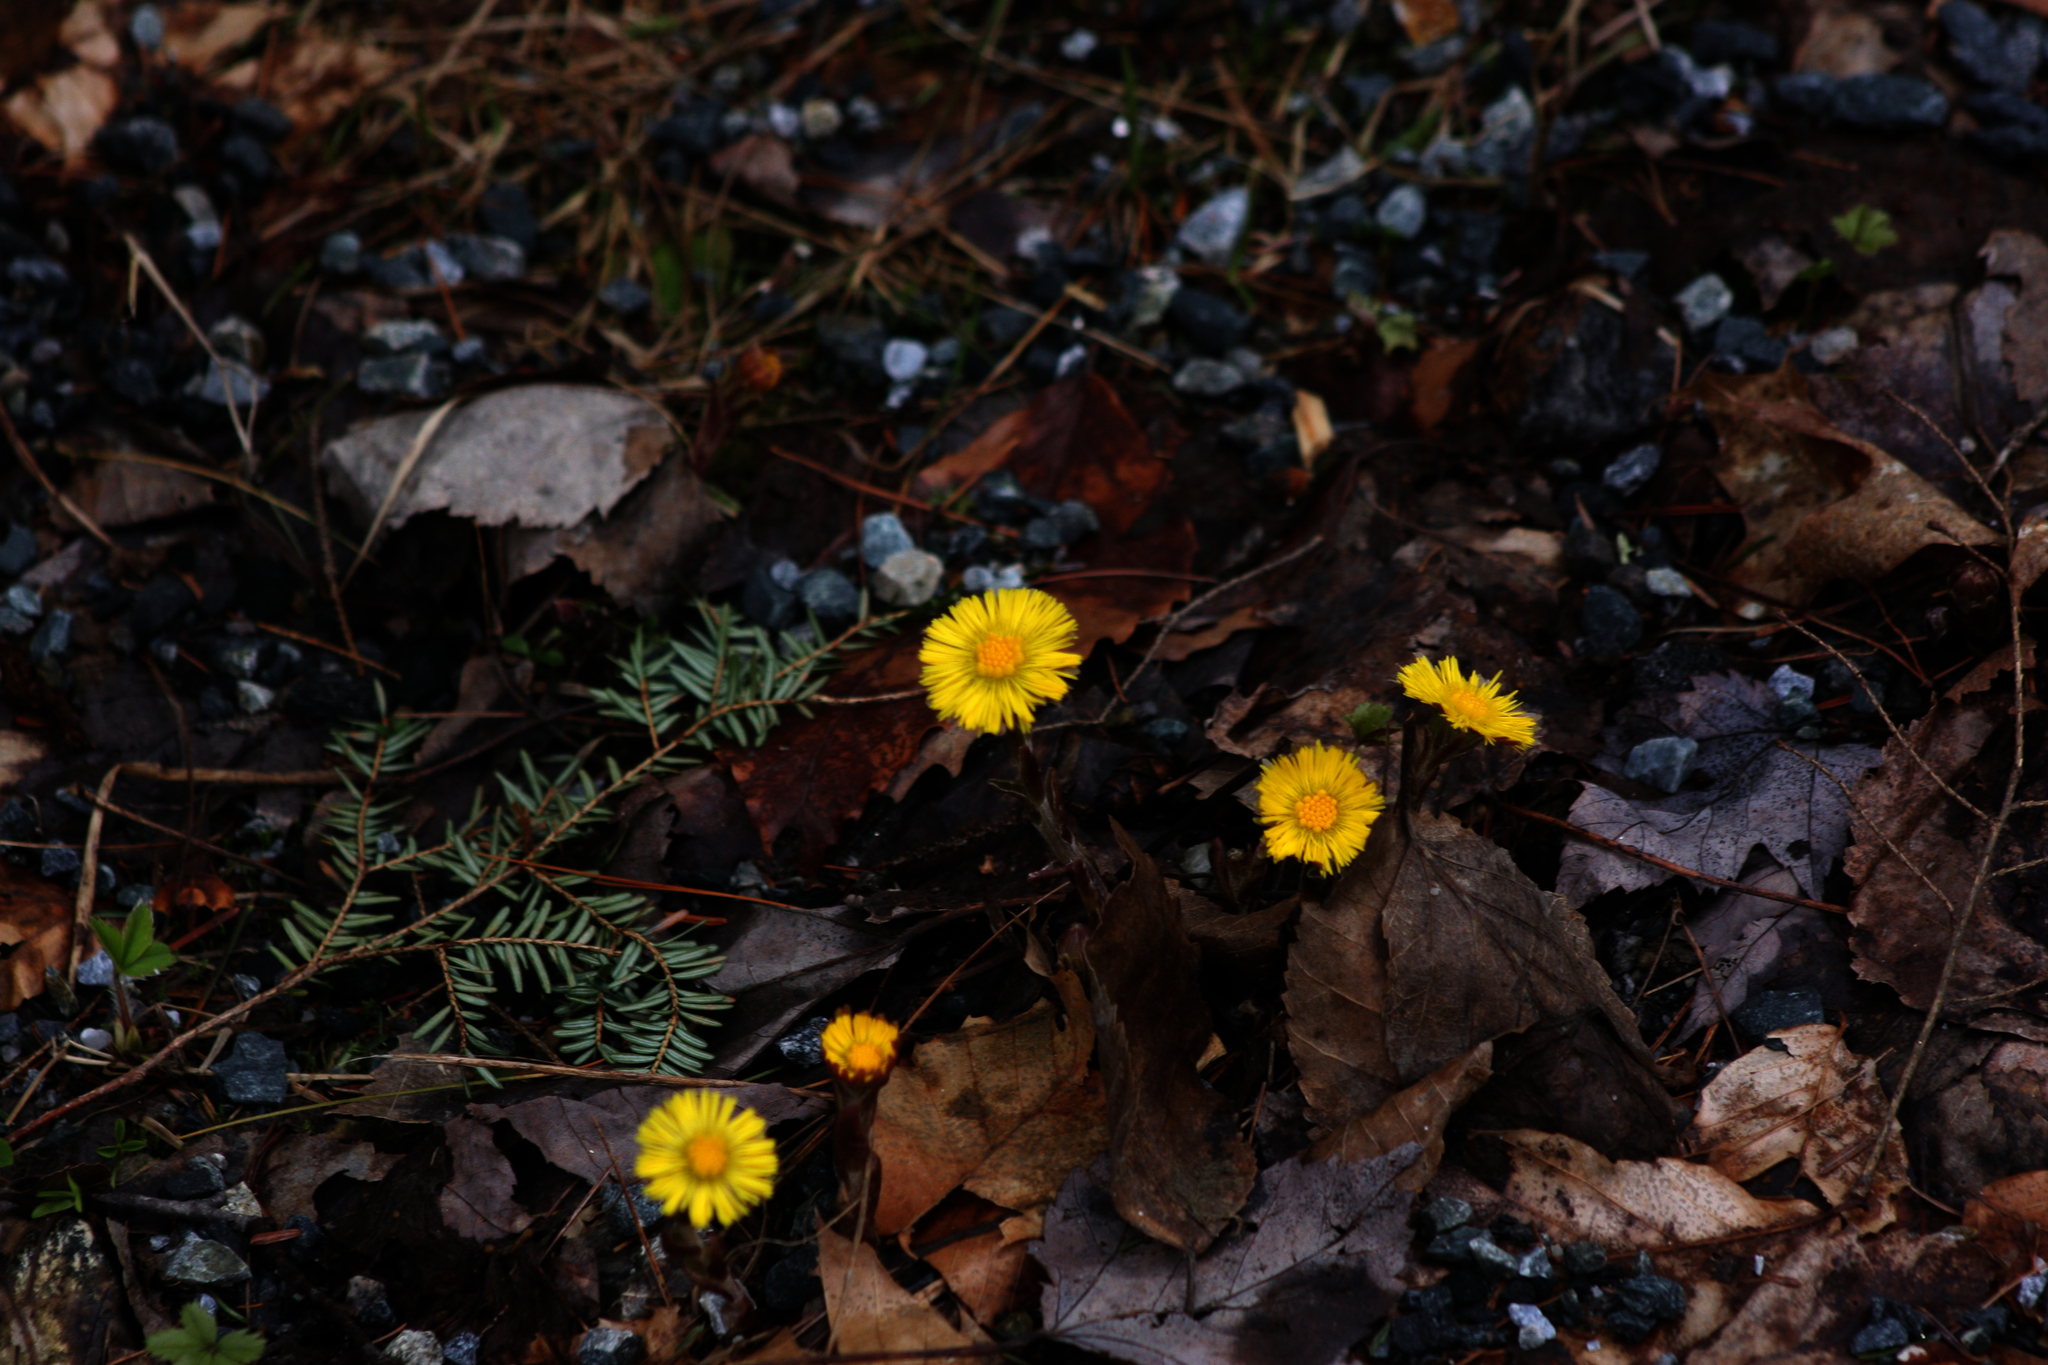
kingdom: Plantae
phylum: Tracheophyta
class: Magnoliopsida
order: Asterales
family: Asteraceae
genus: Tussilago
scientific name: Tussilago farfara
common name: Coltsfoot
